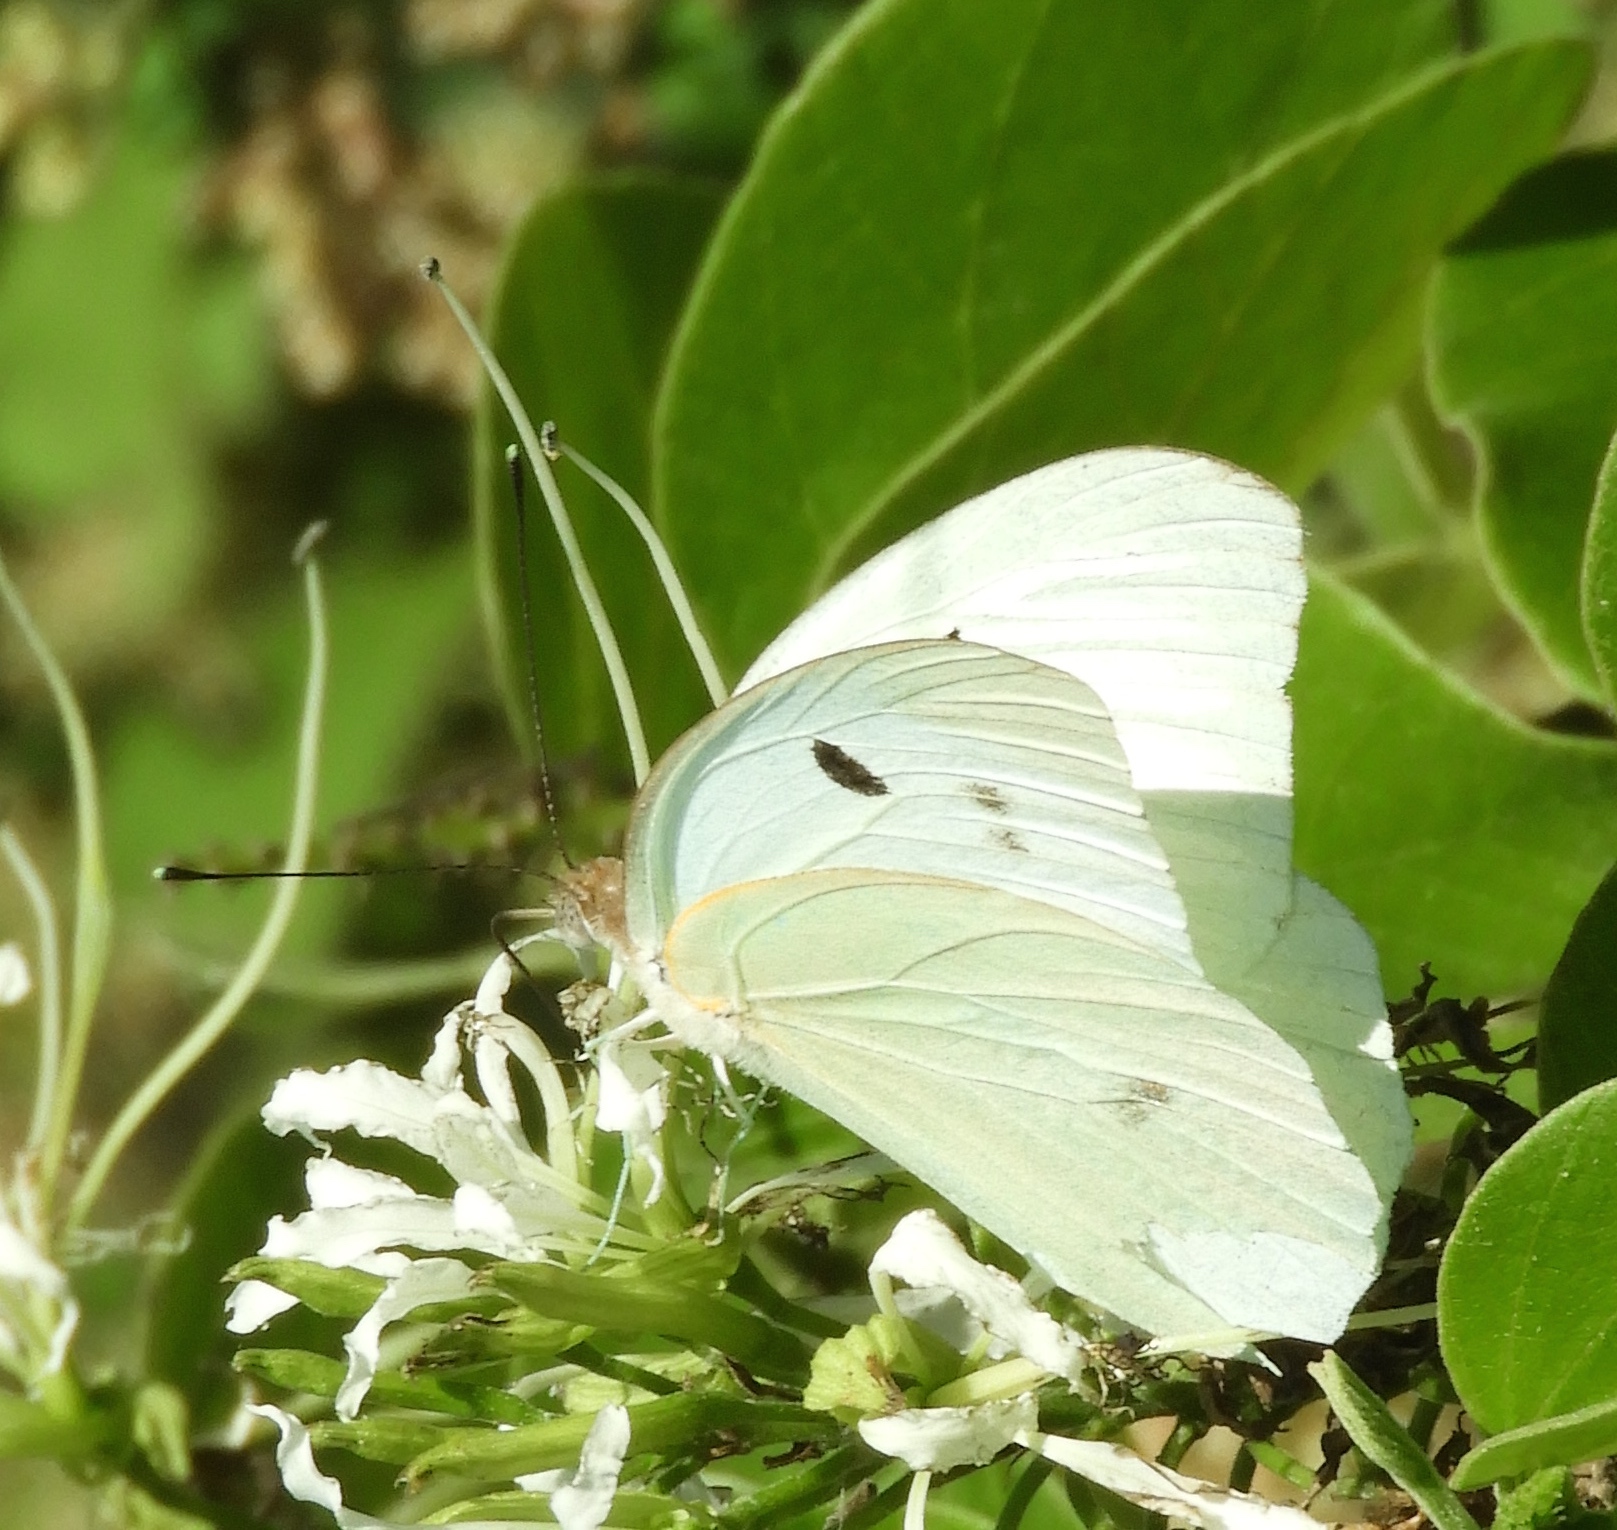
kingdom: Animalia
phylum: Arthropoda
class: Insecta
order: Lepidoptera
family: Pieridae
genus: Ganyra
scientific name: Ganyra josephina
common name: Giant white
